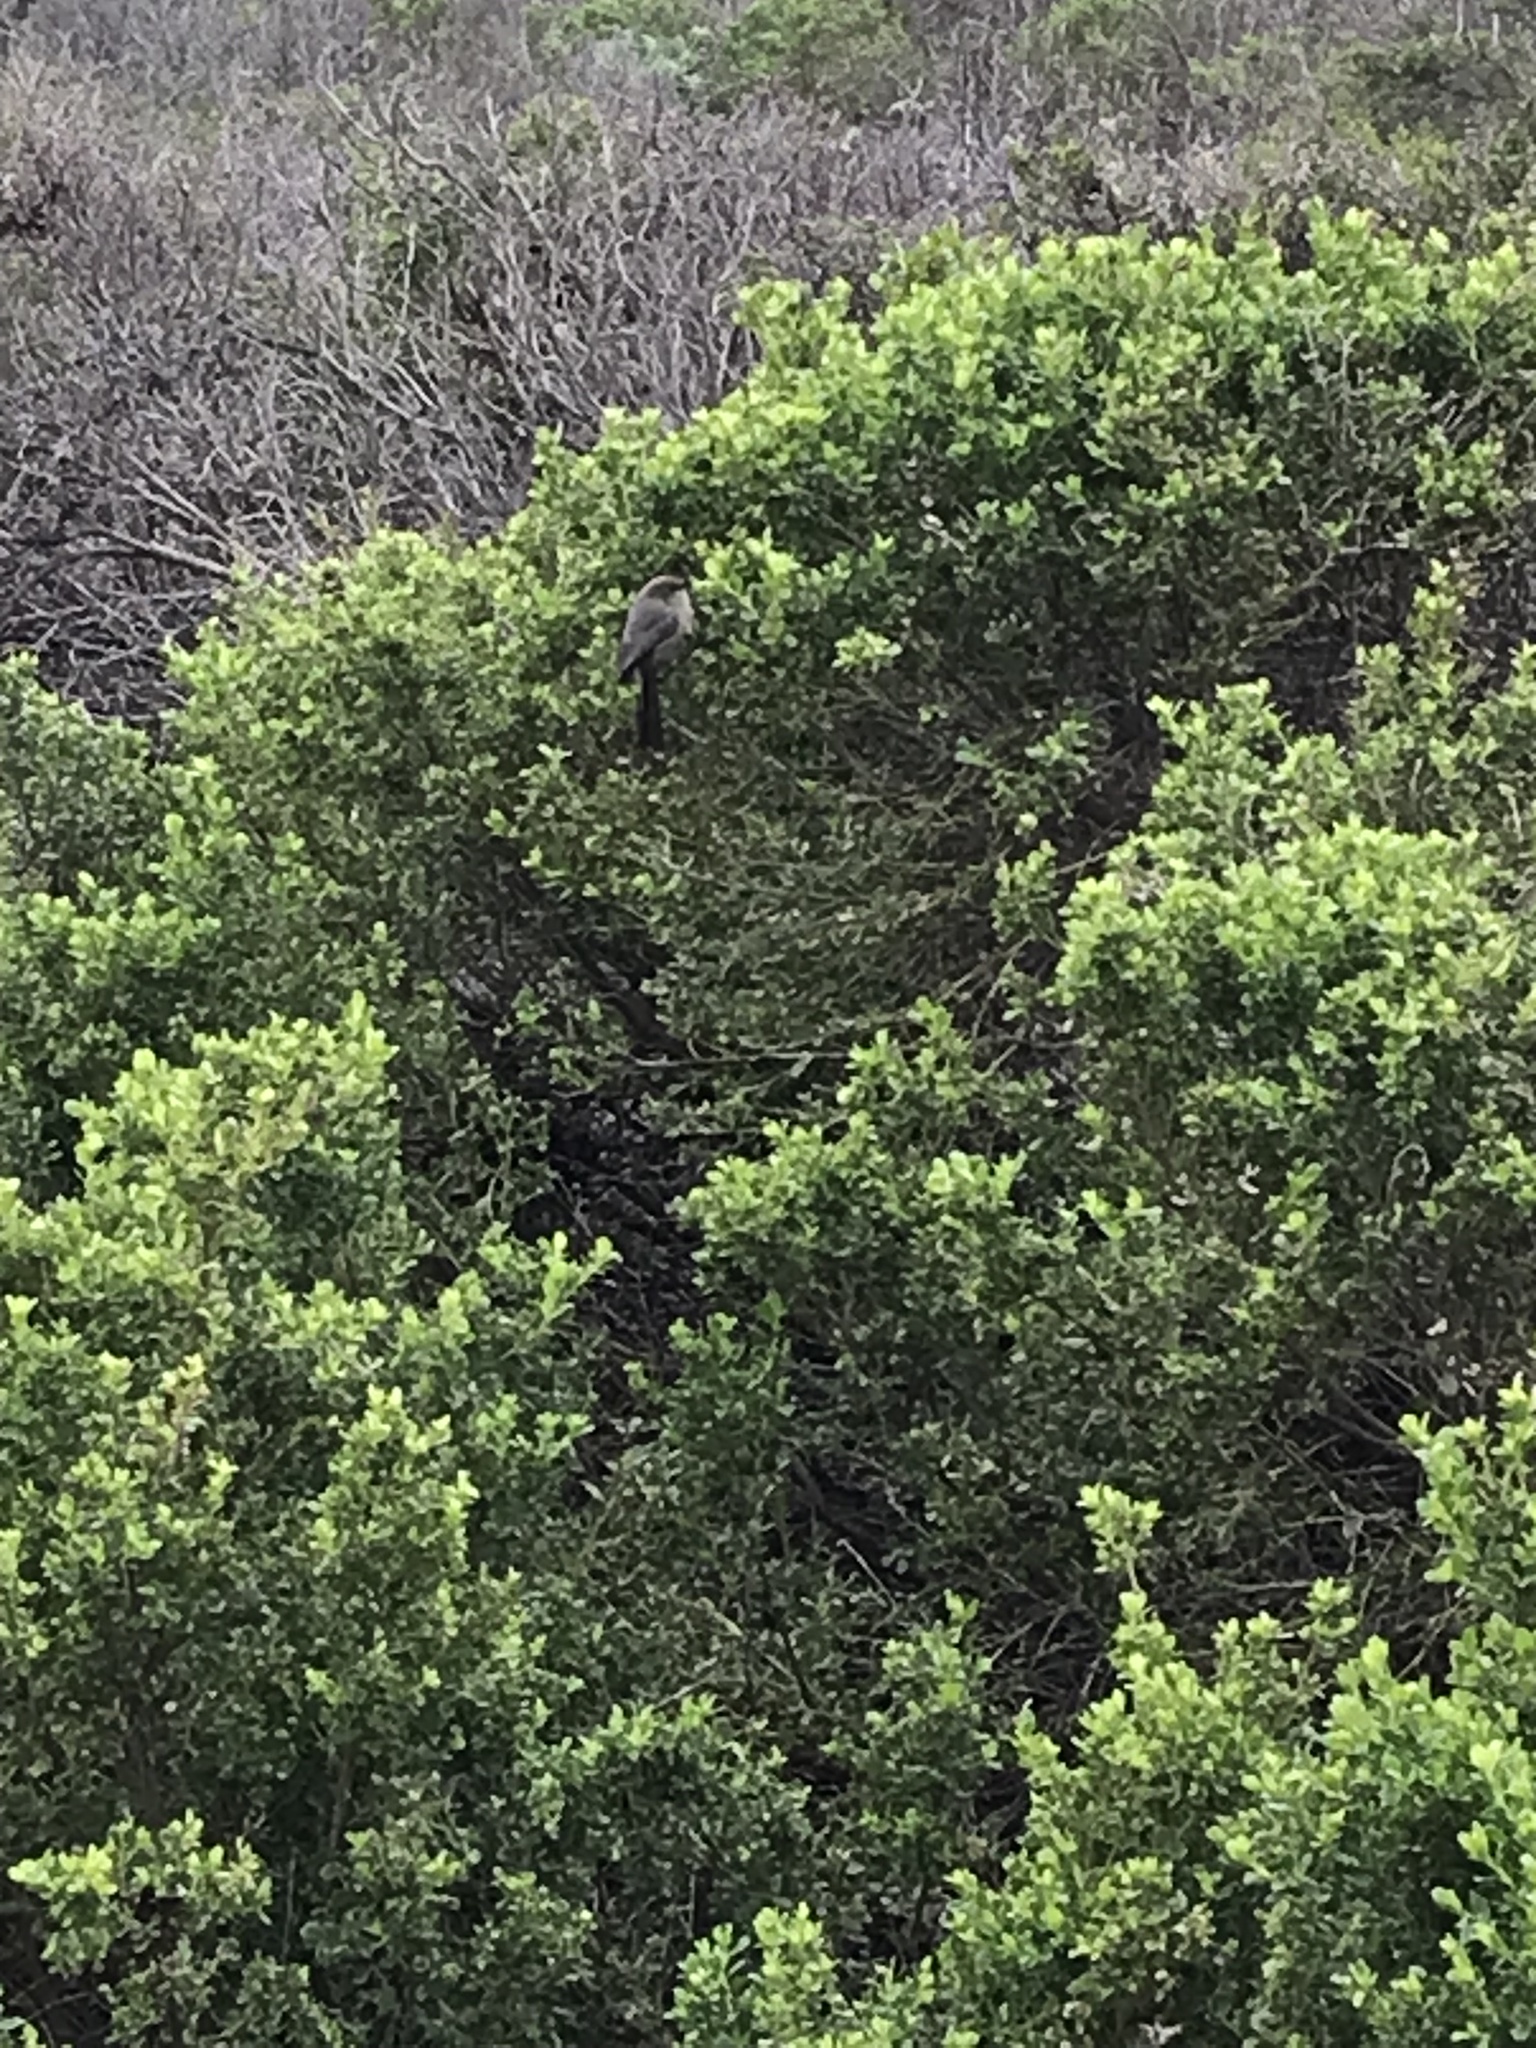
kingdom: Animalia
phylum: Chordata
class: Aves
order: Passeriformes
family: Aegithalidae
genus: Psaltriparus
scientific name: Psaltriparus minimus
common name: American bushtit
